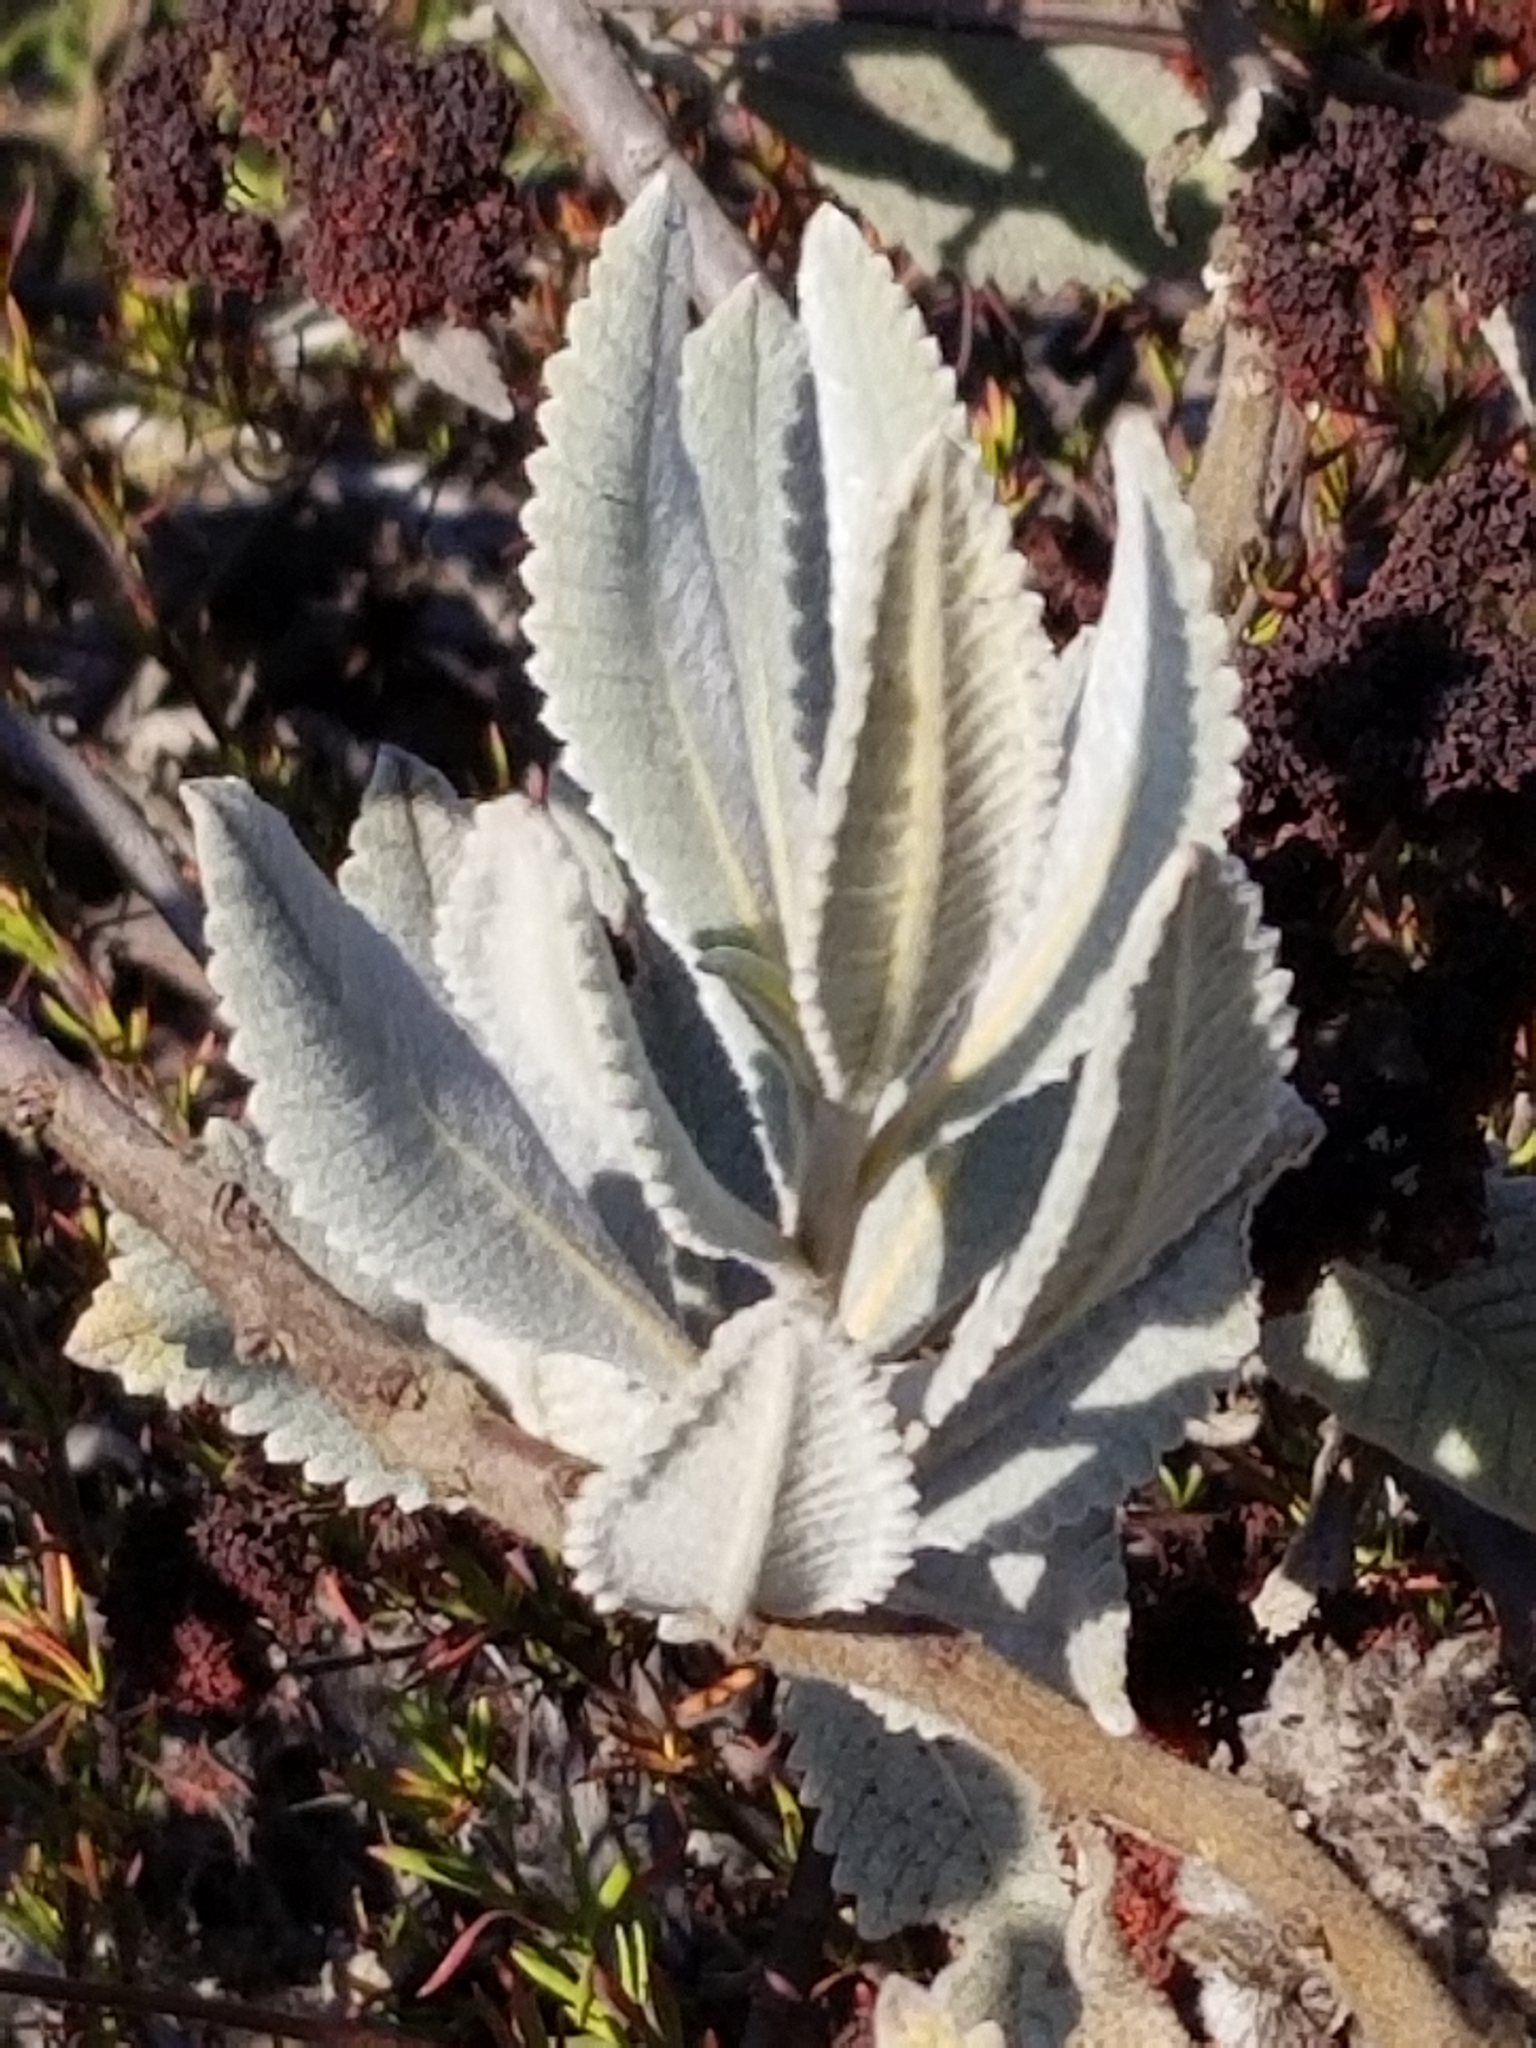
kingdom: Plantae
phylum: Tracheophyta
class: Magnoliopsida
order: Boraginales
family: Namaceae
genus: Eriodictyon
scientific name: Eriodictyon crassifolium
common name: Thick-leaf yerba-santa
